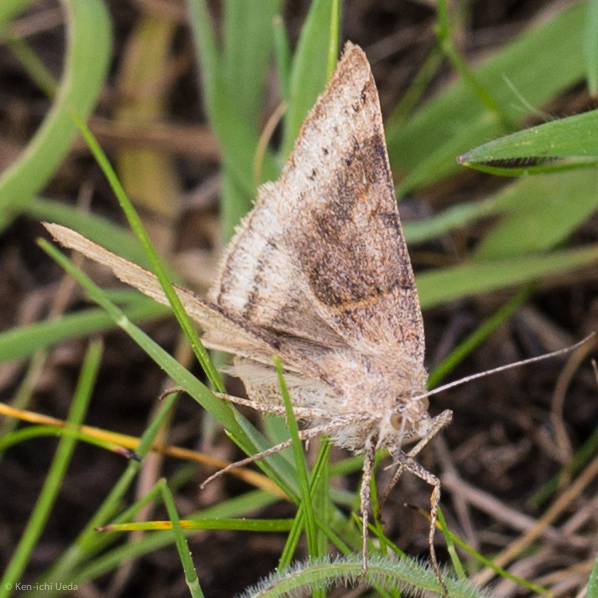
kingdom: Animalia
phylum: Arthropoda
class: Insecta
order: Lepidoptera
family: Erebidae
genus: Caenurgina
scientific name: Caenurgina erechtea
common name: Forage looper moth
